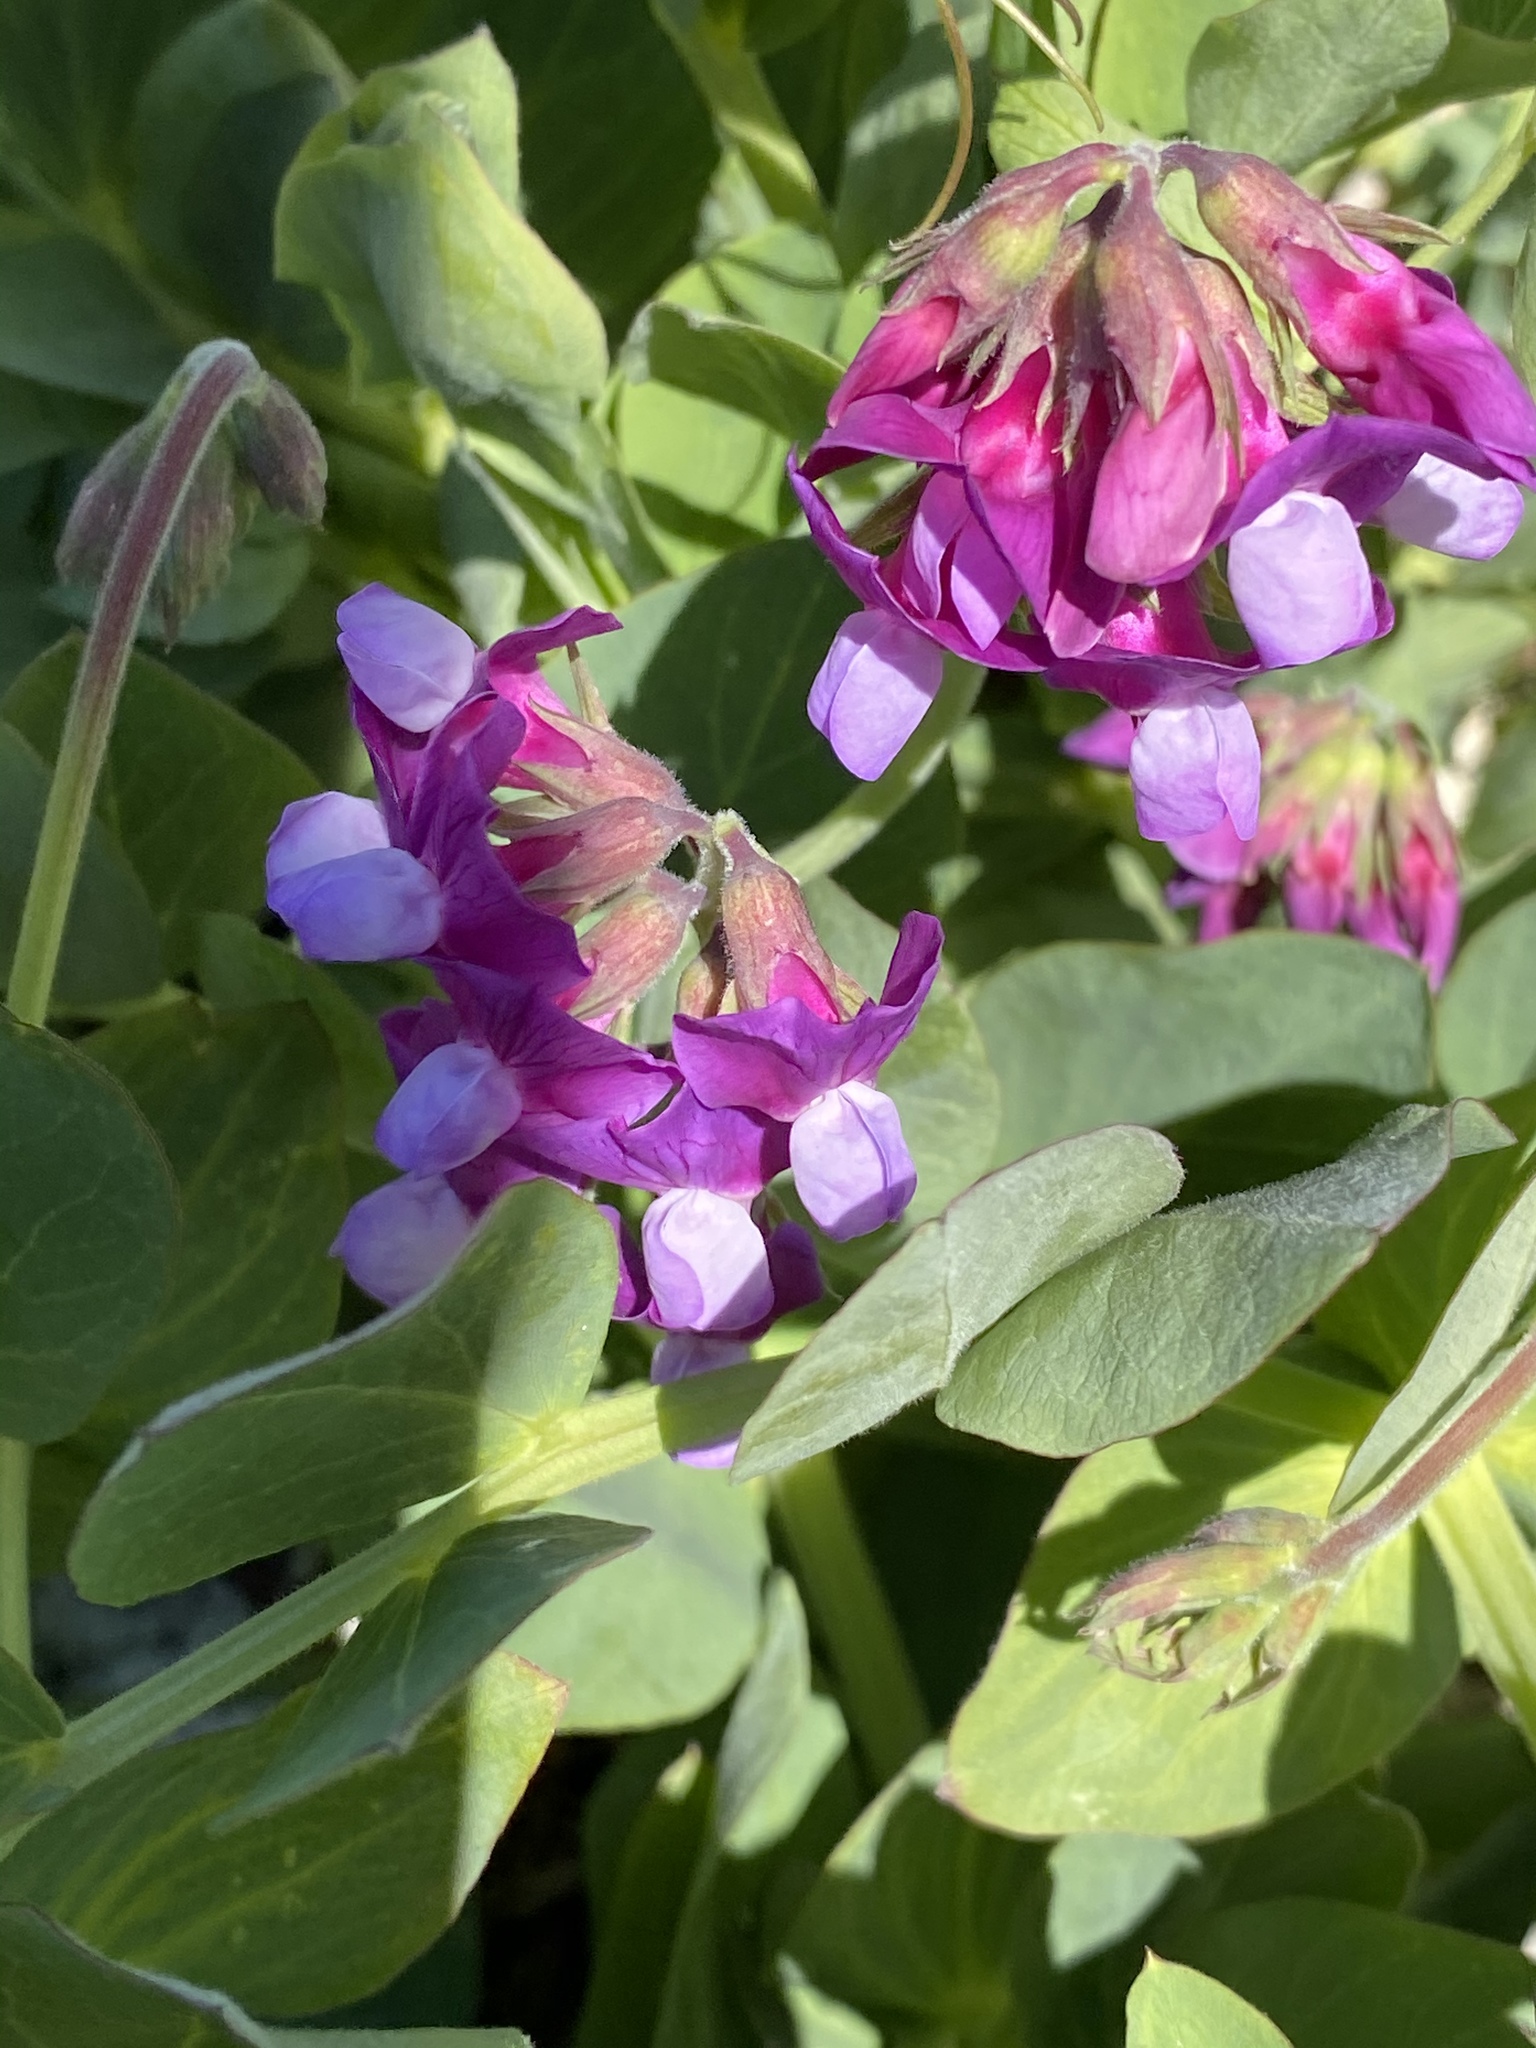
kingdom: Plantae
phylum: Tracheophyta
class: Magnoliopsida
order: Fabales
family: Fabaceae
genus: Lathyrus
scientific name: Lathyrus japonicus
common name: Sea pea
